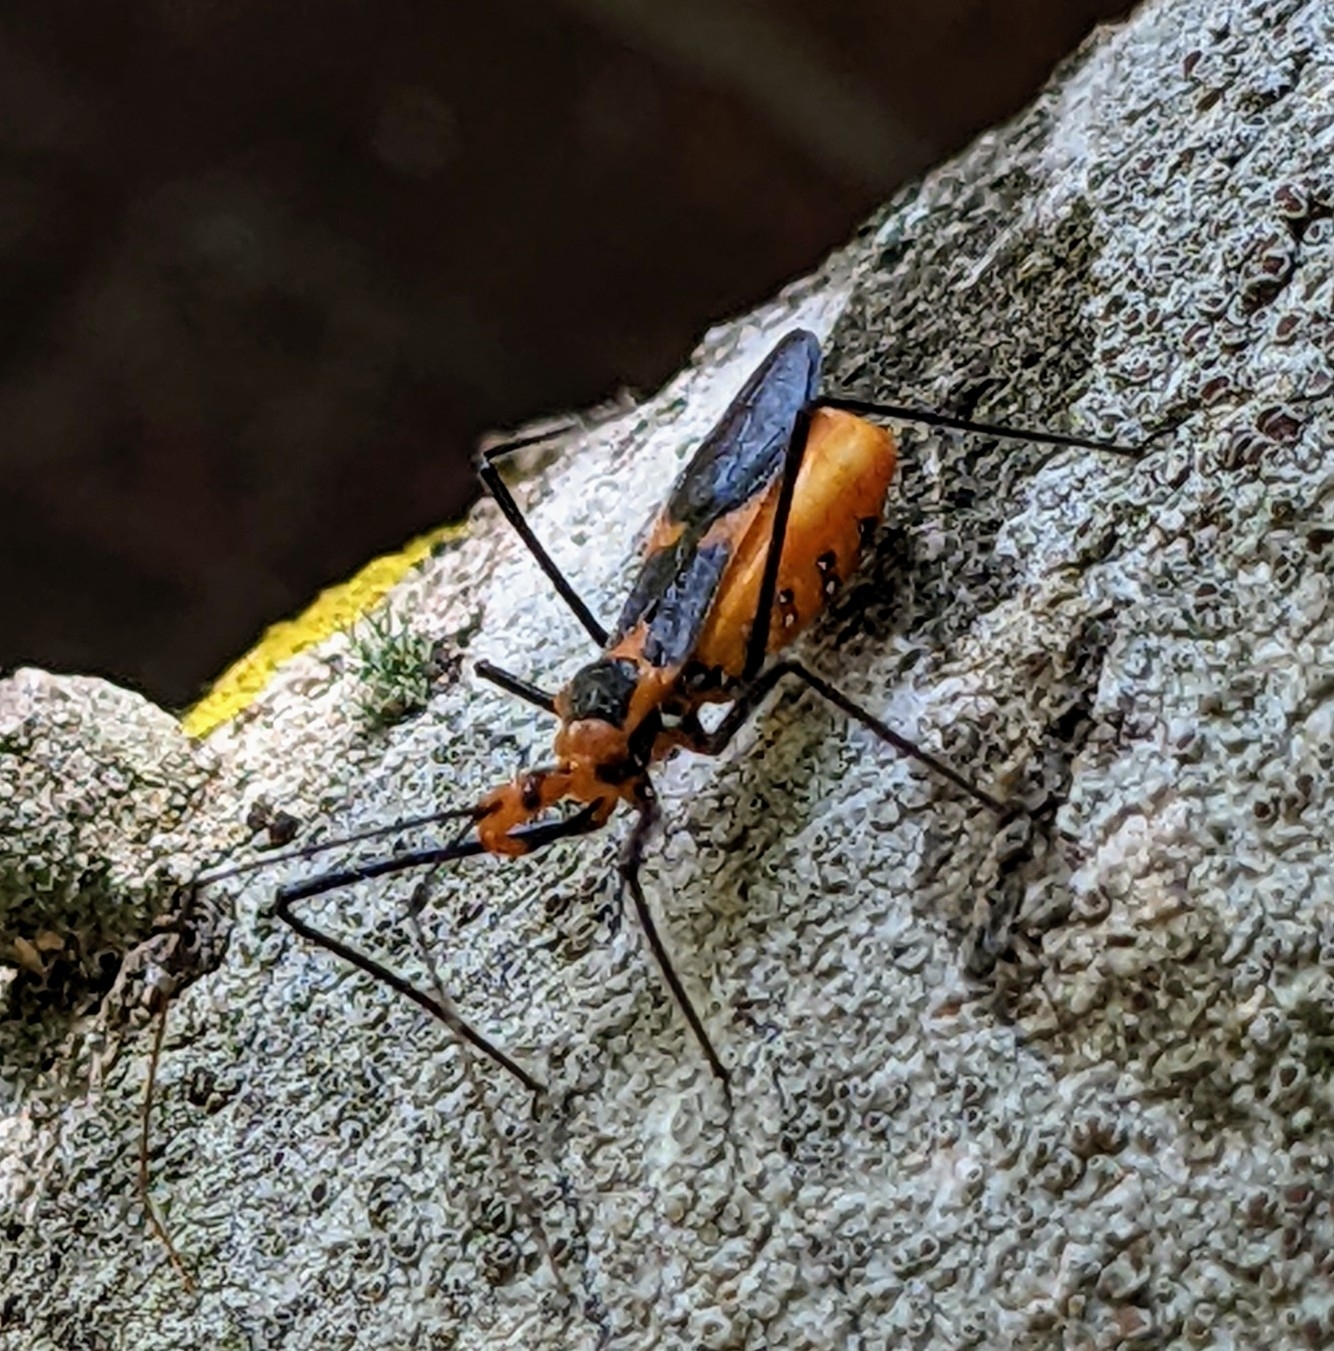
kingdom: Animalia
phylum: Arthropoda
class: Insecta
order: Hemiptera
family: Reduviidae
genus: Zelus
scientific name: Zelus longipes
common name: Milkweed assassin bug
